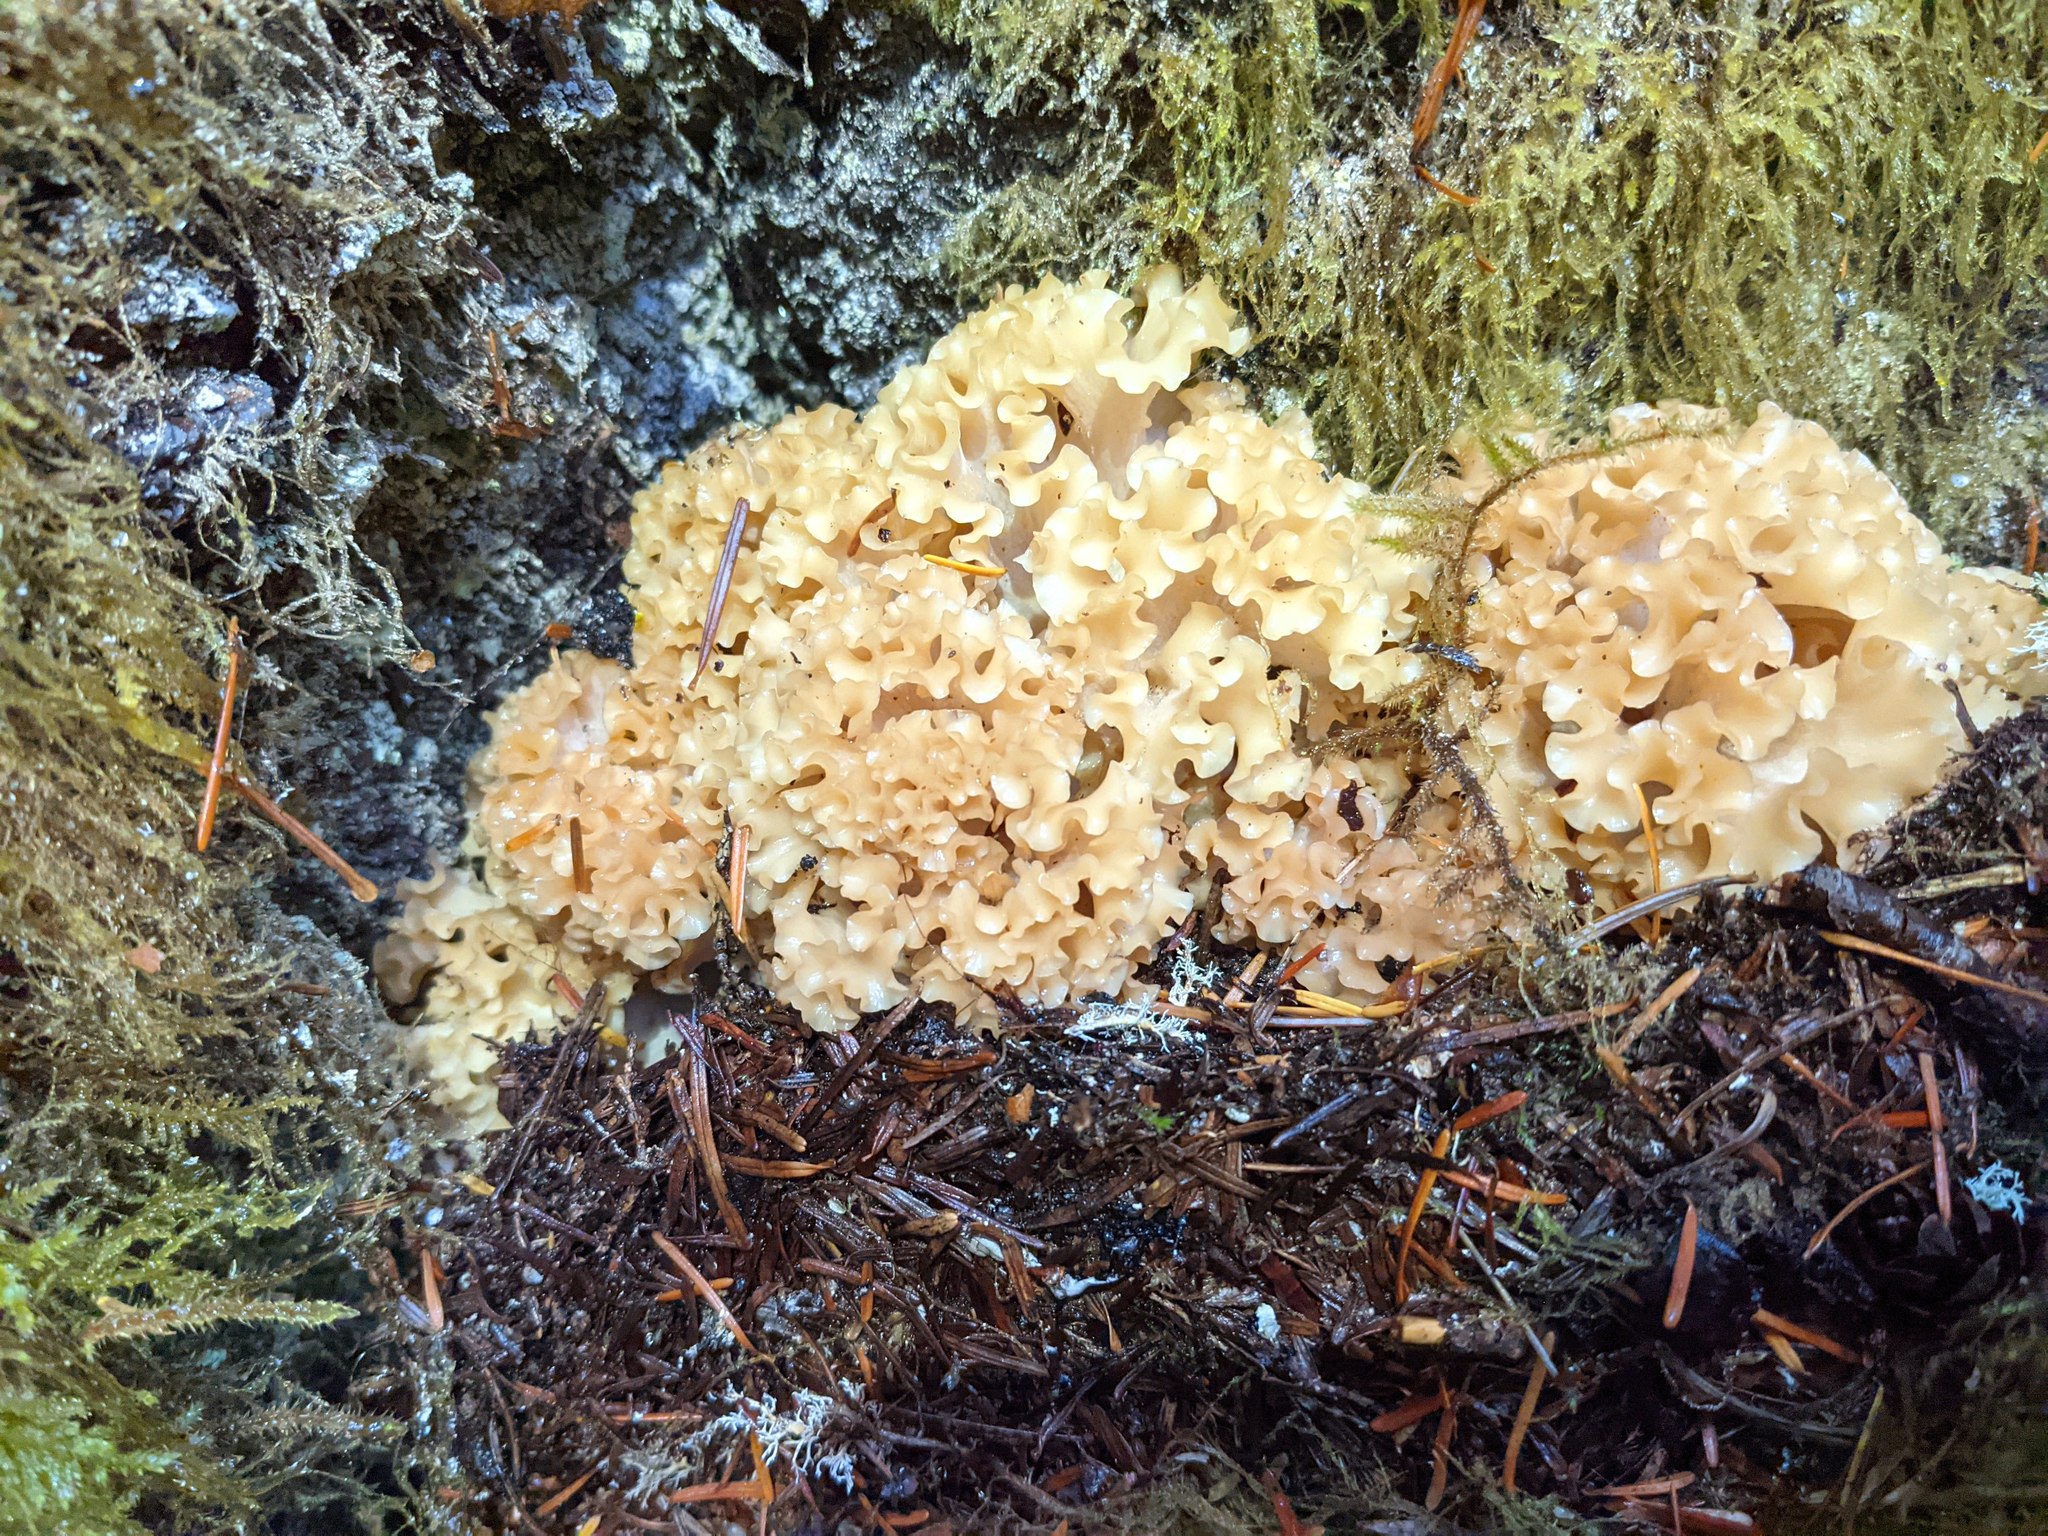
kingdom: Fungi
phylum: Basidiomycota
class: Agaricomycetes
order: Polyporales
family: Sparassidaceae
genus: Sparassis
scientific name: Sparassis radicata
